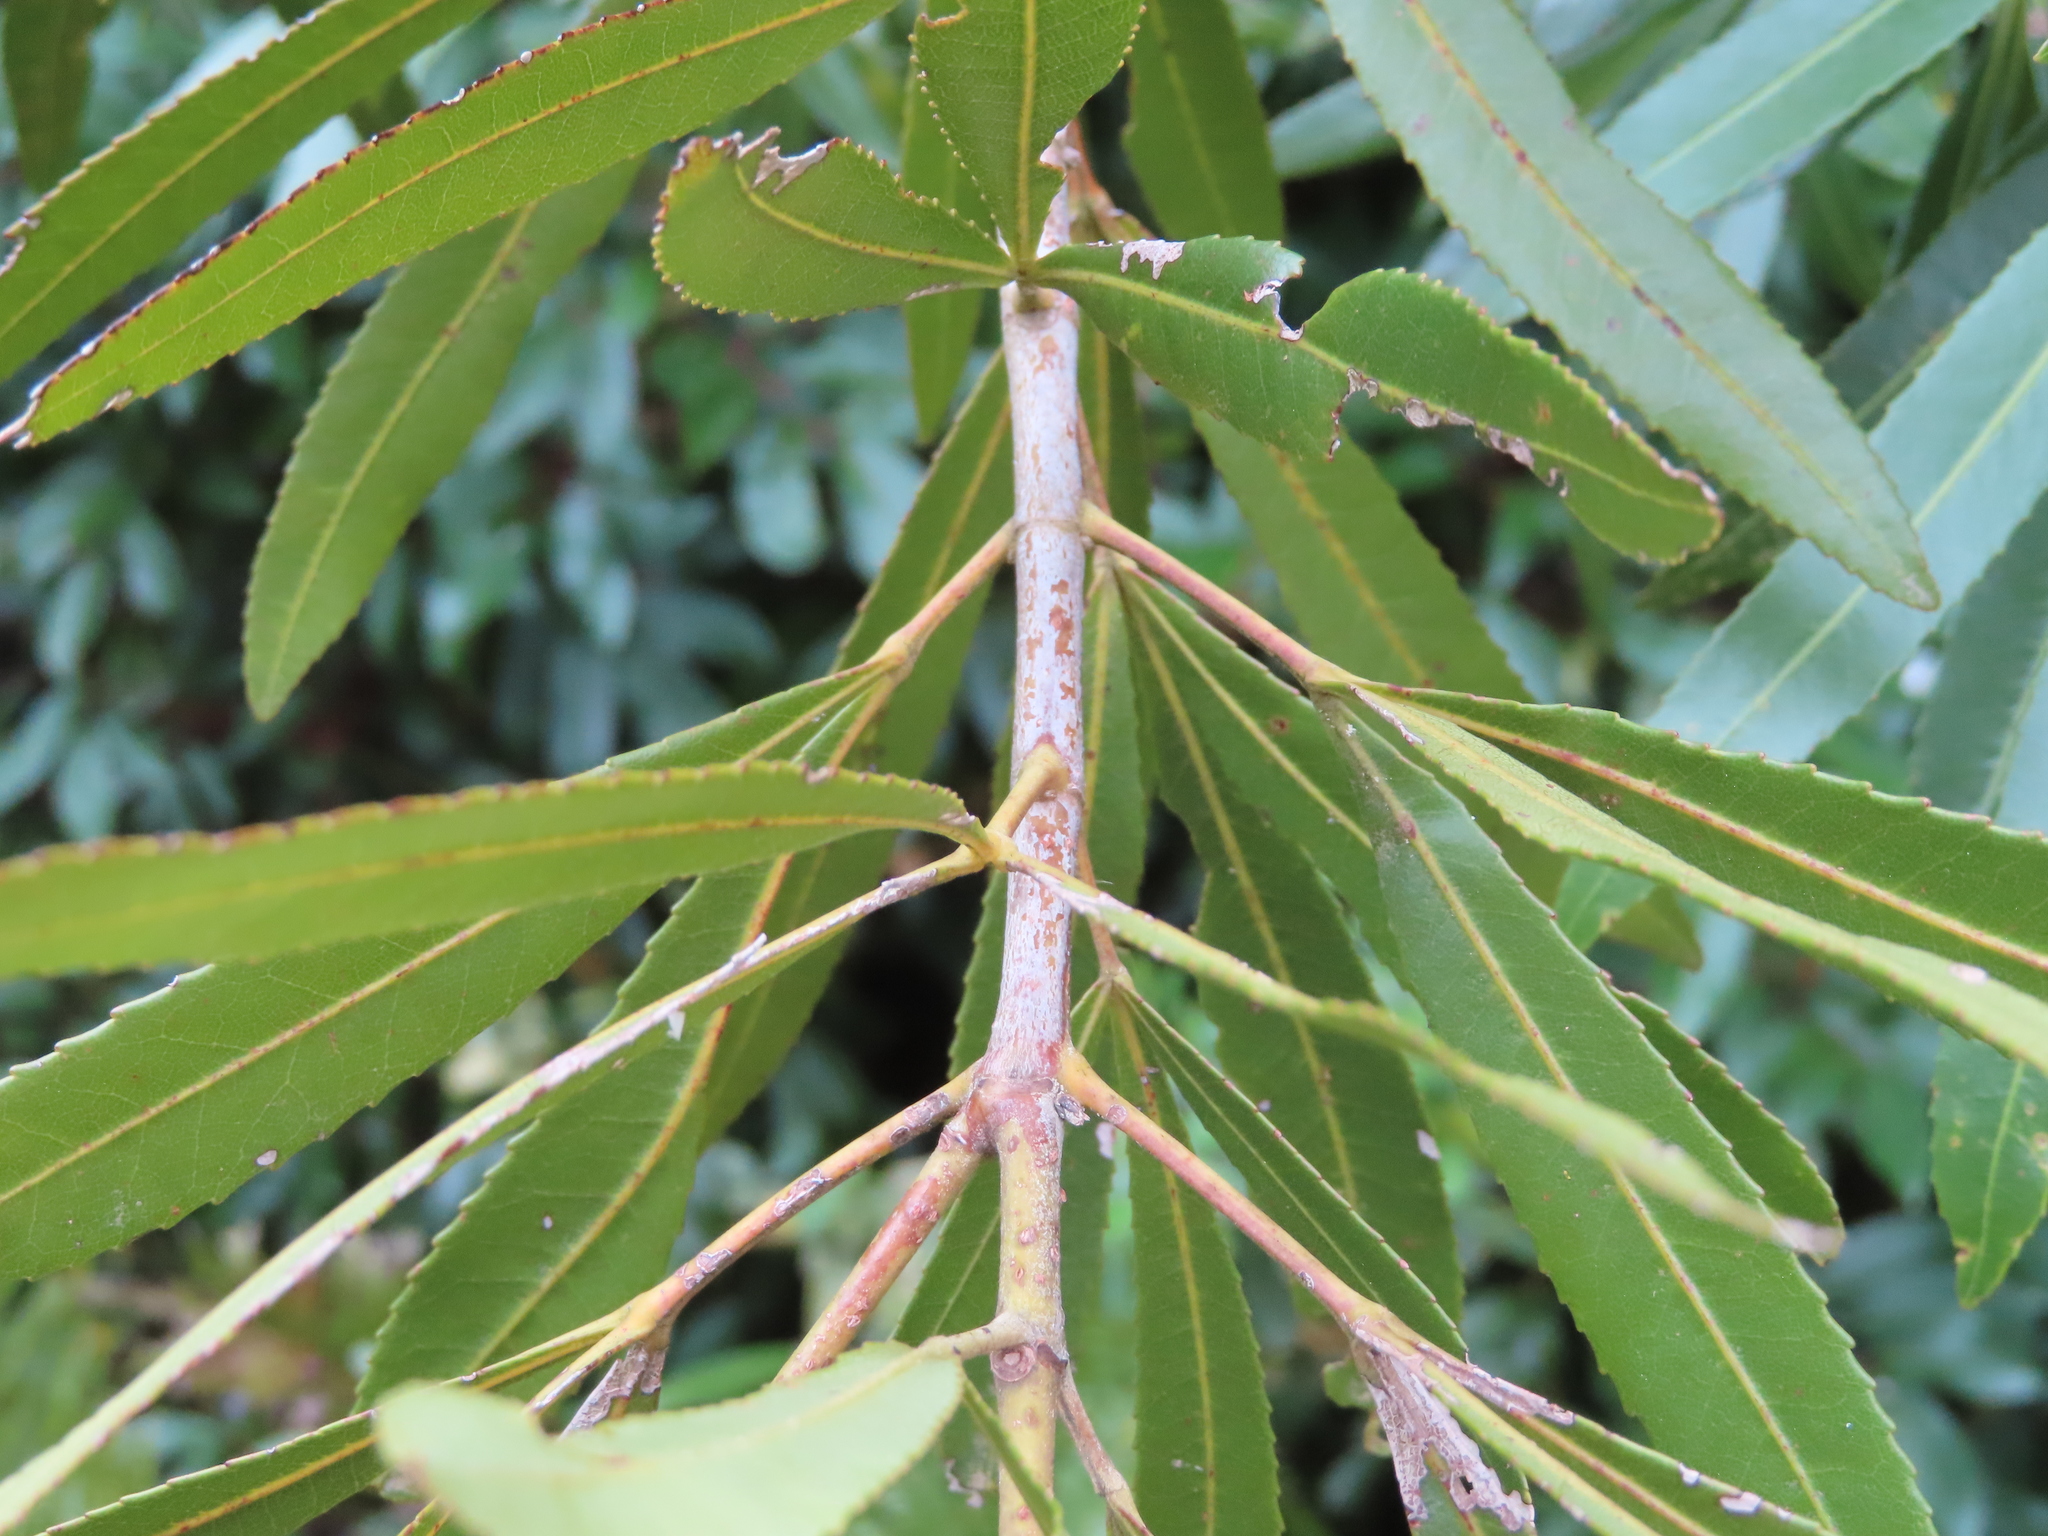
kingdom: Plantae
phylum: Tracheophyta
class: Magnoliopsida
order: Oxalidales
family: Cunoniaceae
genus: Platylophus
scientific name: Platylophus trifoliatus
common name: White alder
